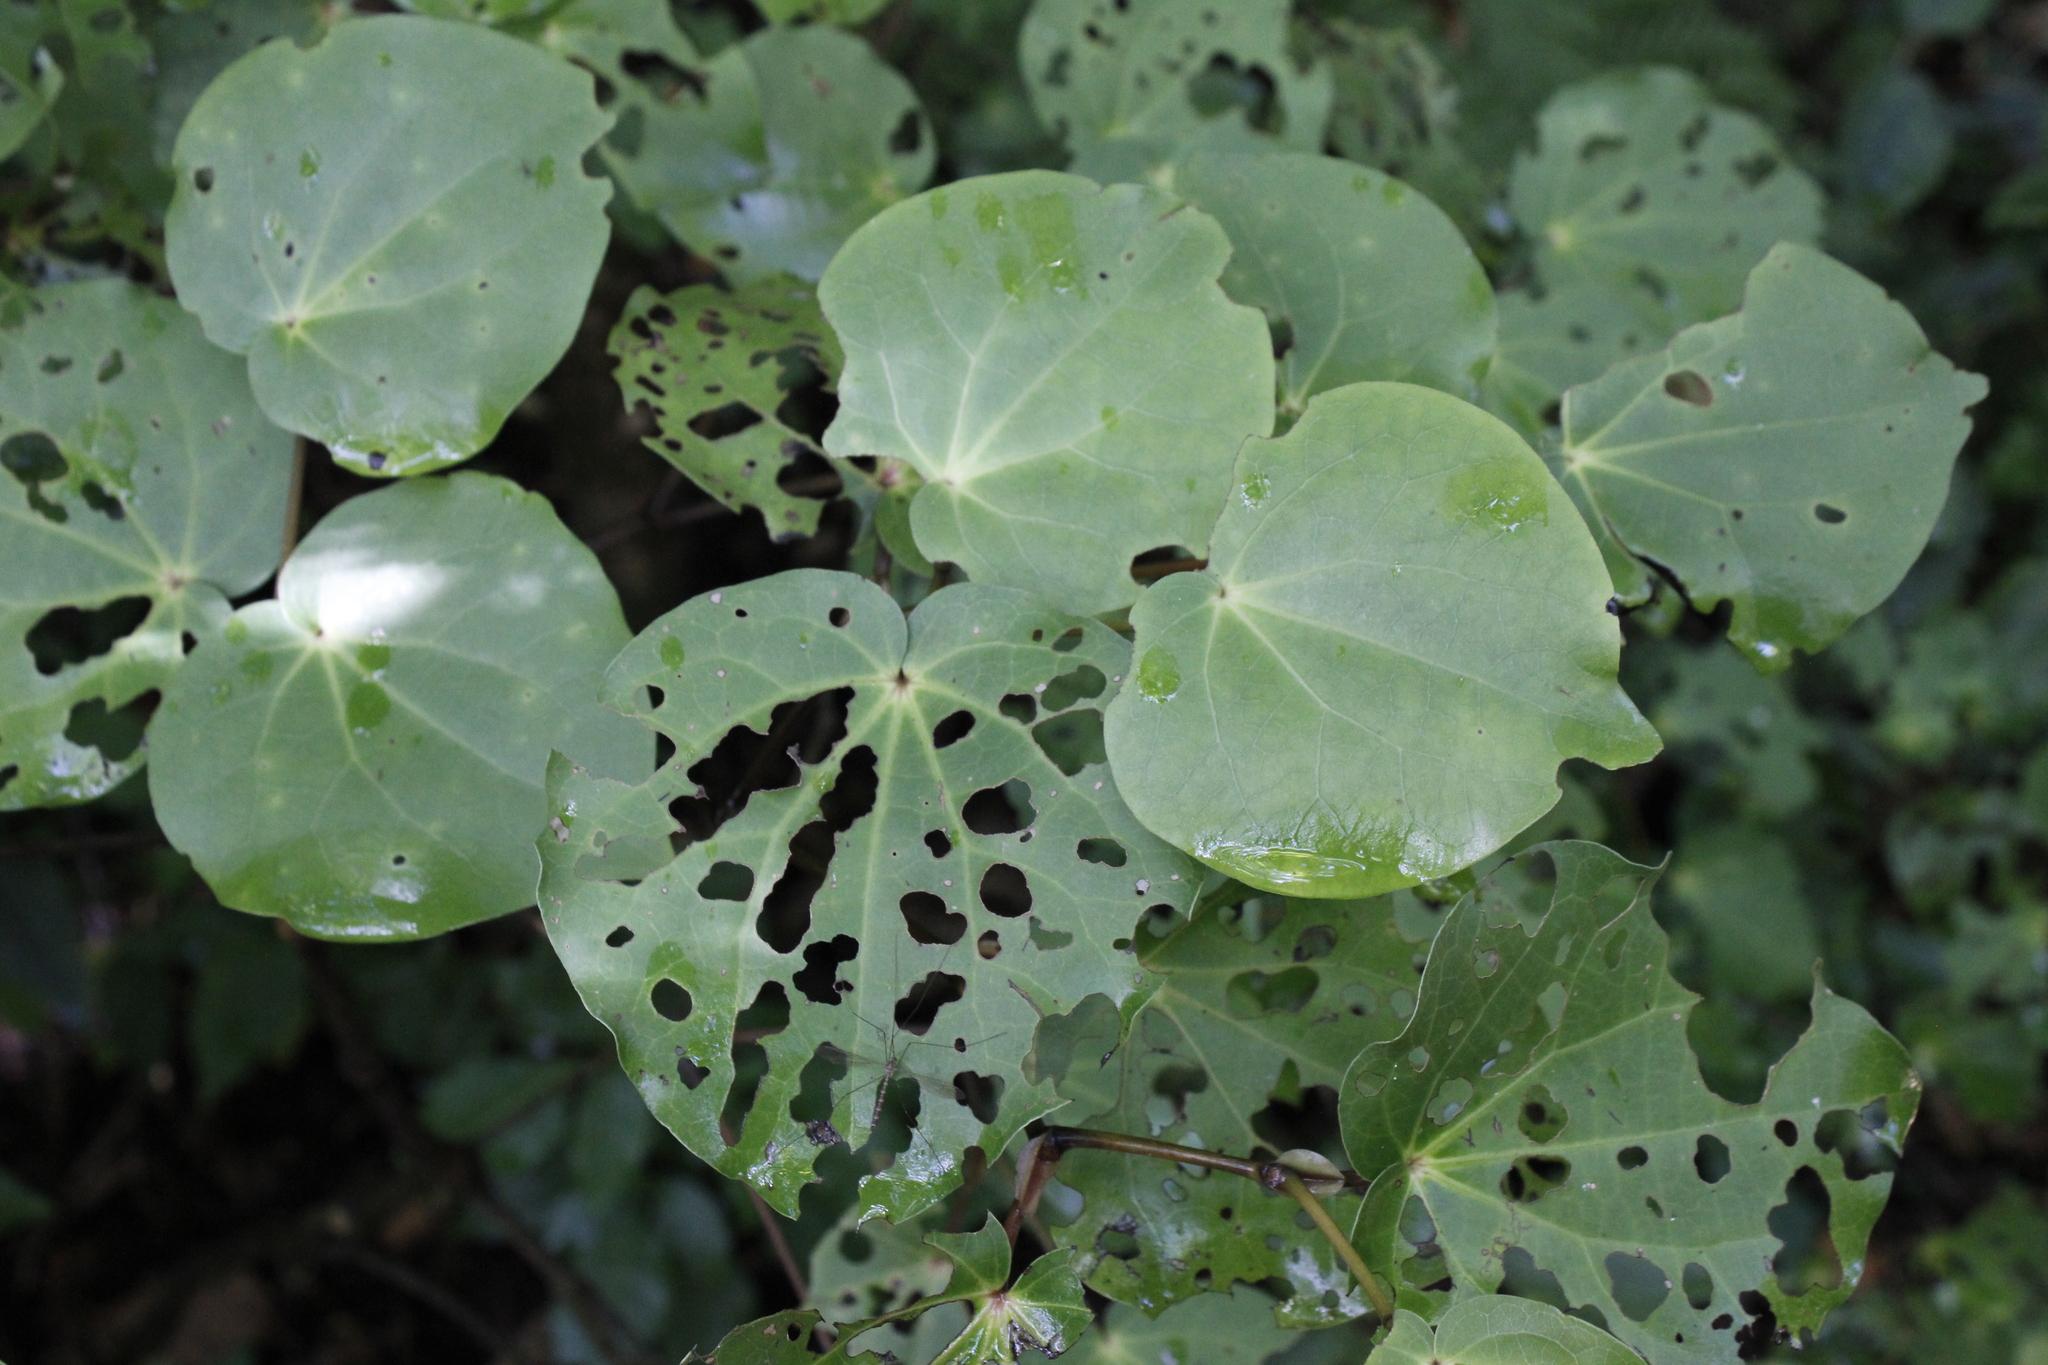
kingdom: Plantae
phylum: Tracheophyta
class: Magnoliopsida
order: Piperales
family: Piperaceae
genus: Macropiper
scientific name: Macropiper excelsum
